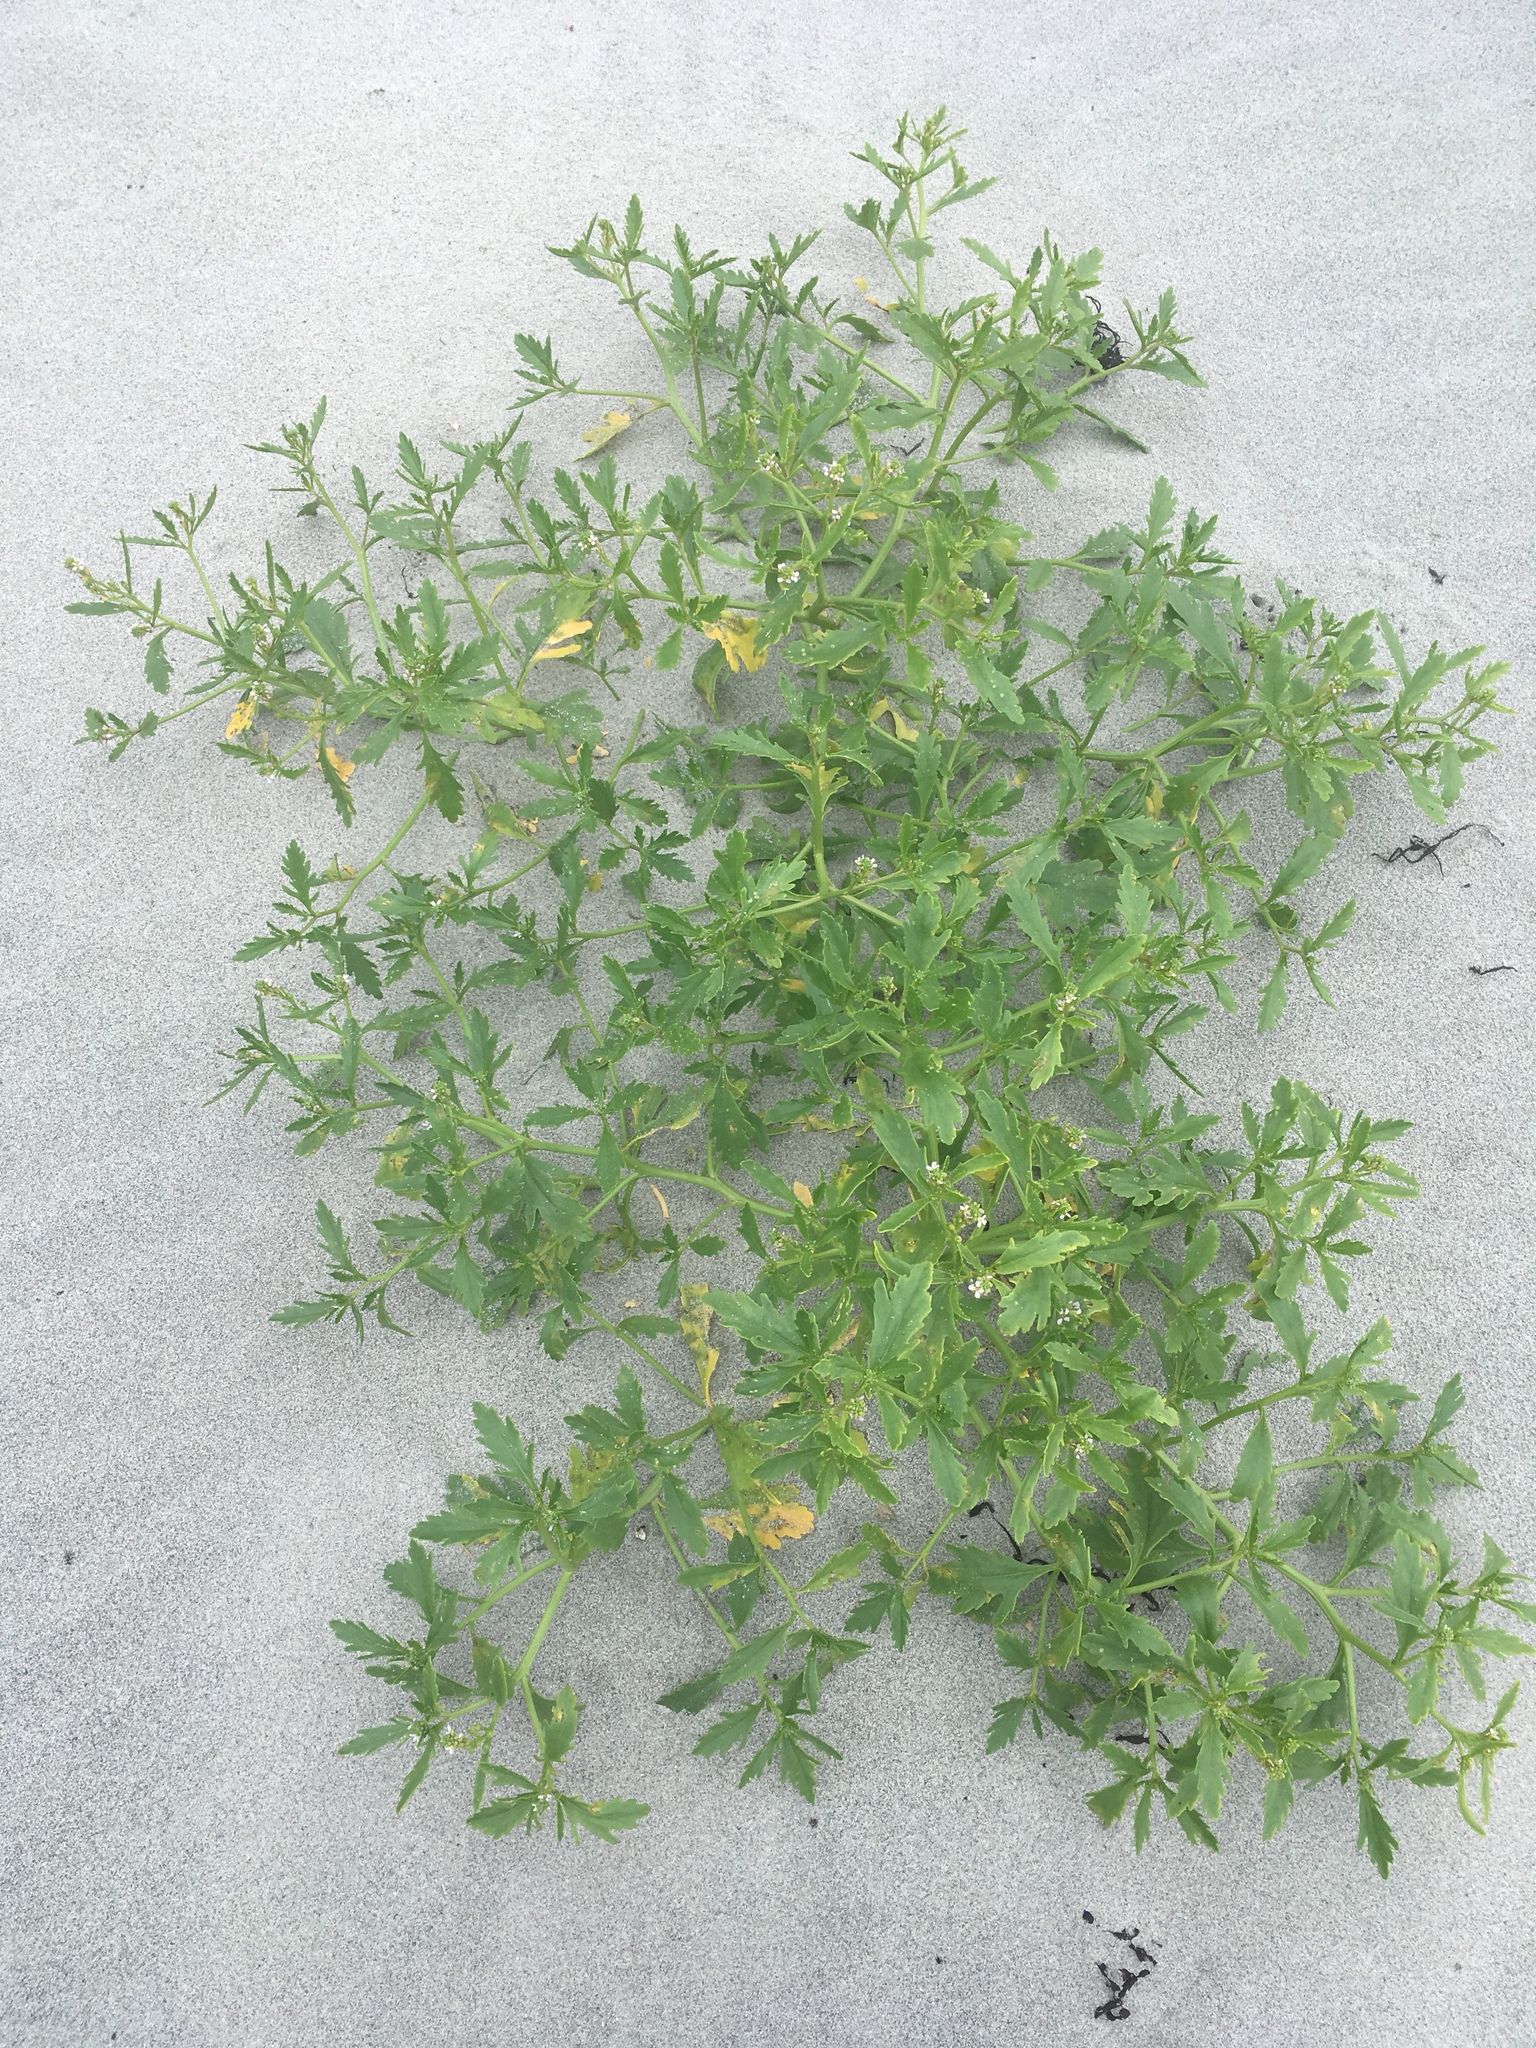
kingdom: Plantae
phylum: Tracheophyta
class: Magnoliopsida
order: Brassicales
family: Brassicaceae
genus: Cakile
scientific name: Cakile edentula
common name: American sea rocket
